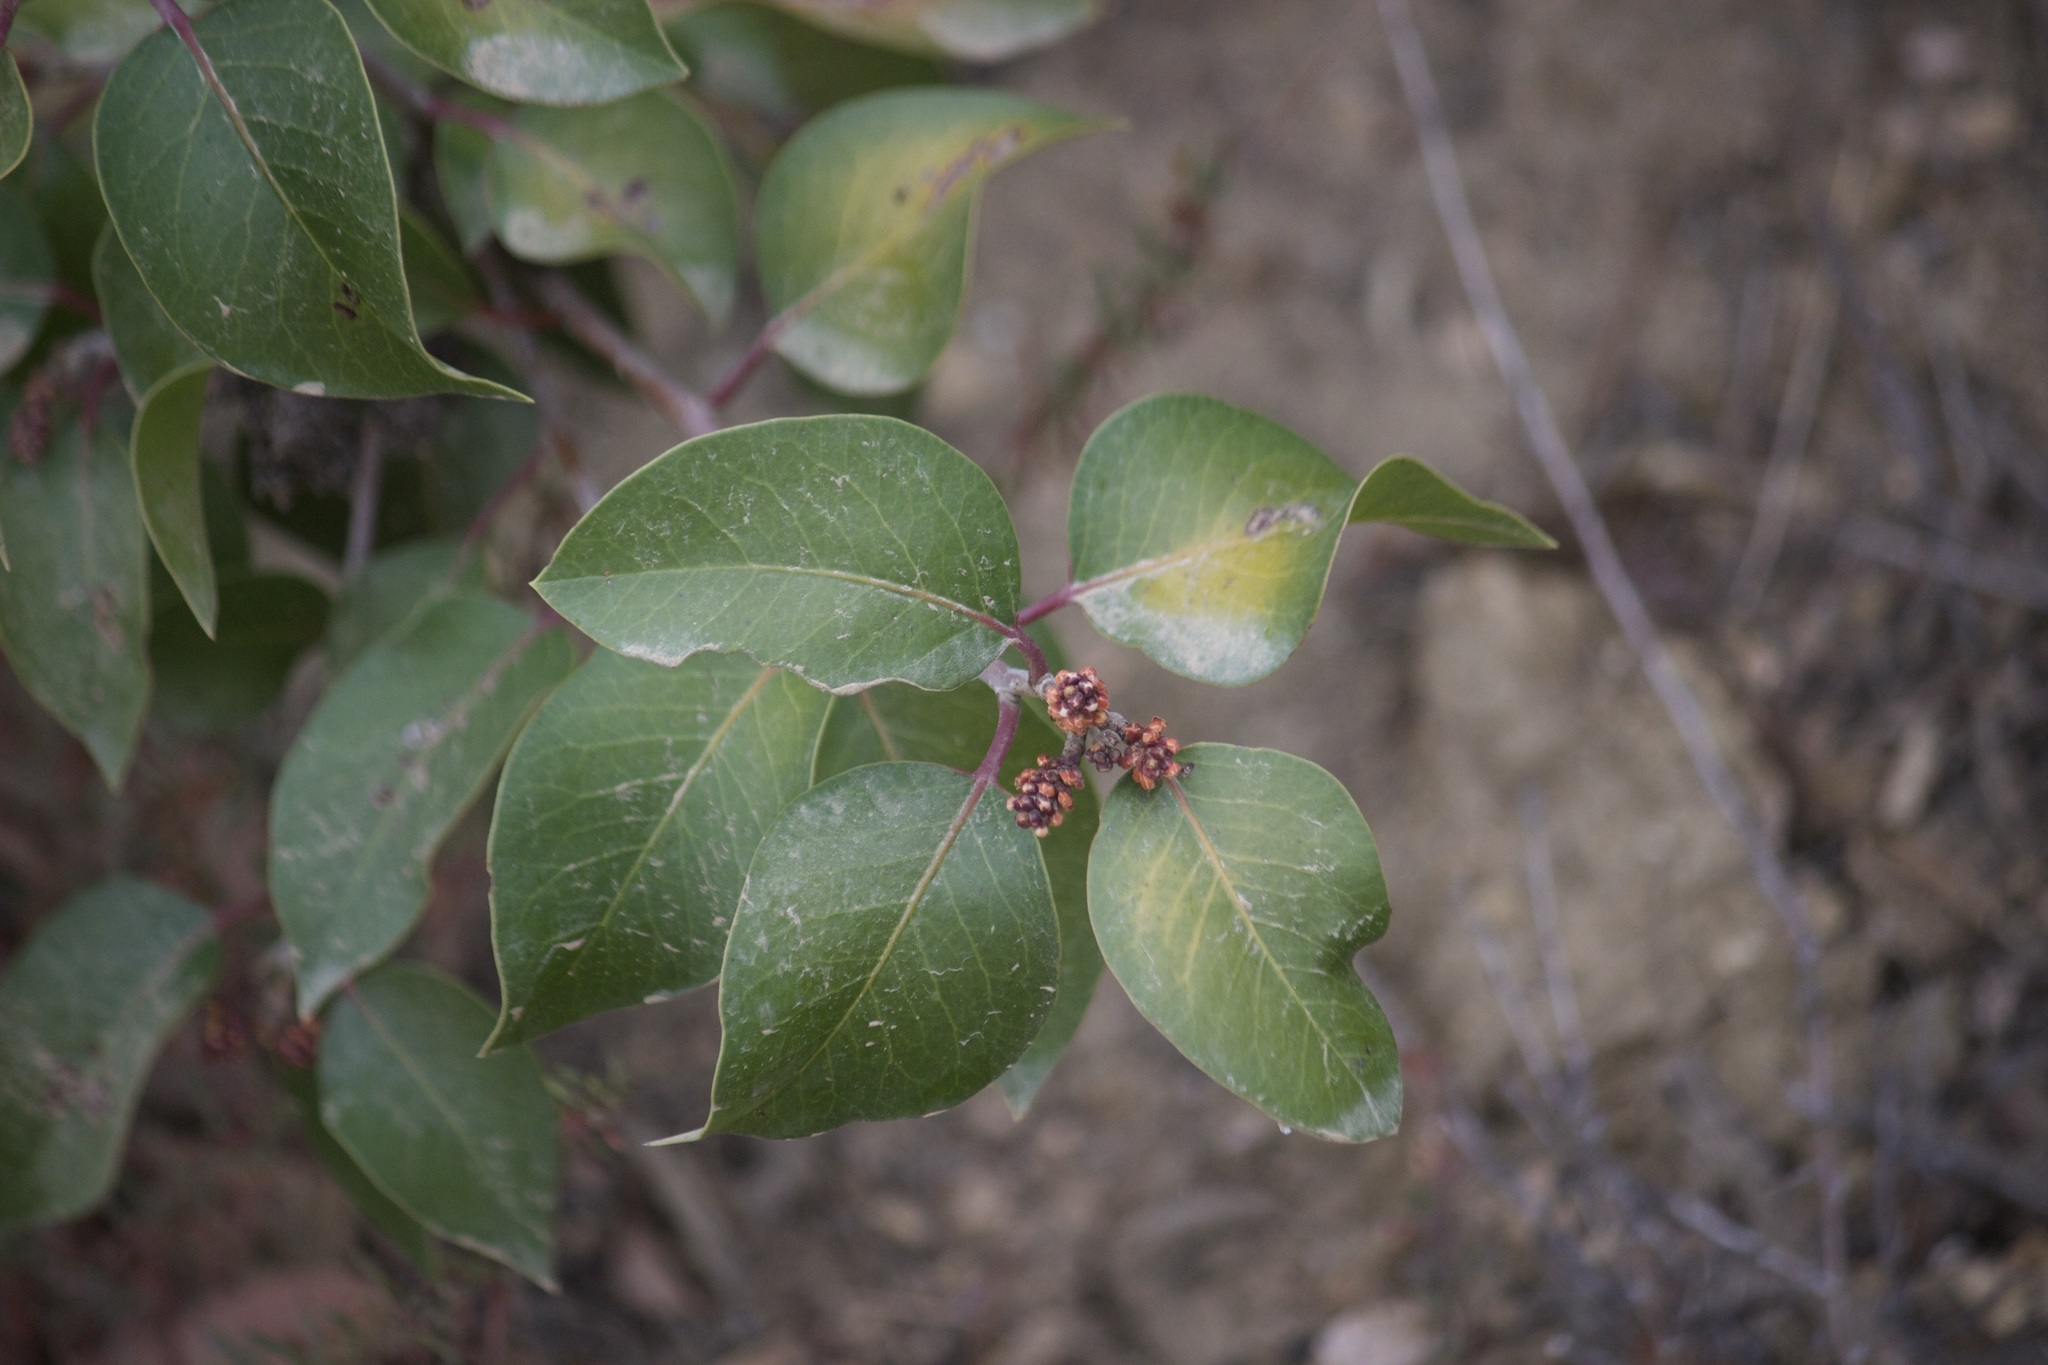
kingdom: Plantae
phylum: Tracheophyta
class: Magnoliopsida
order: Sapindales
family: Anacardiaceae
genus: Rhus
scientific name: Rhus ovata
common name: Sugar sumac
